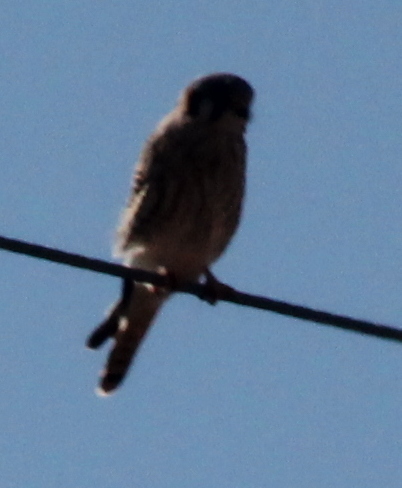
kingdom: Animalia
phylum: Chordata
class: Aves
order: Falconiformes
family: Falconidae
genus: Falco
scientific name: Falco sparverius
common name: American kestrel
